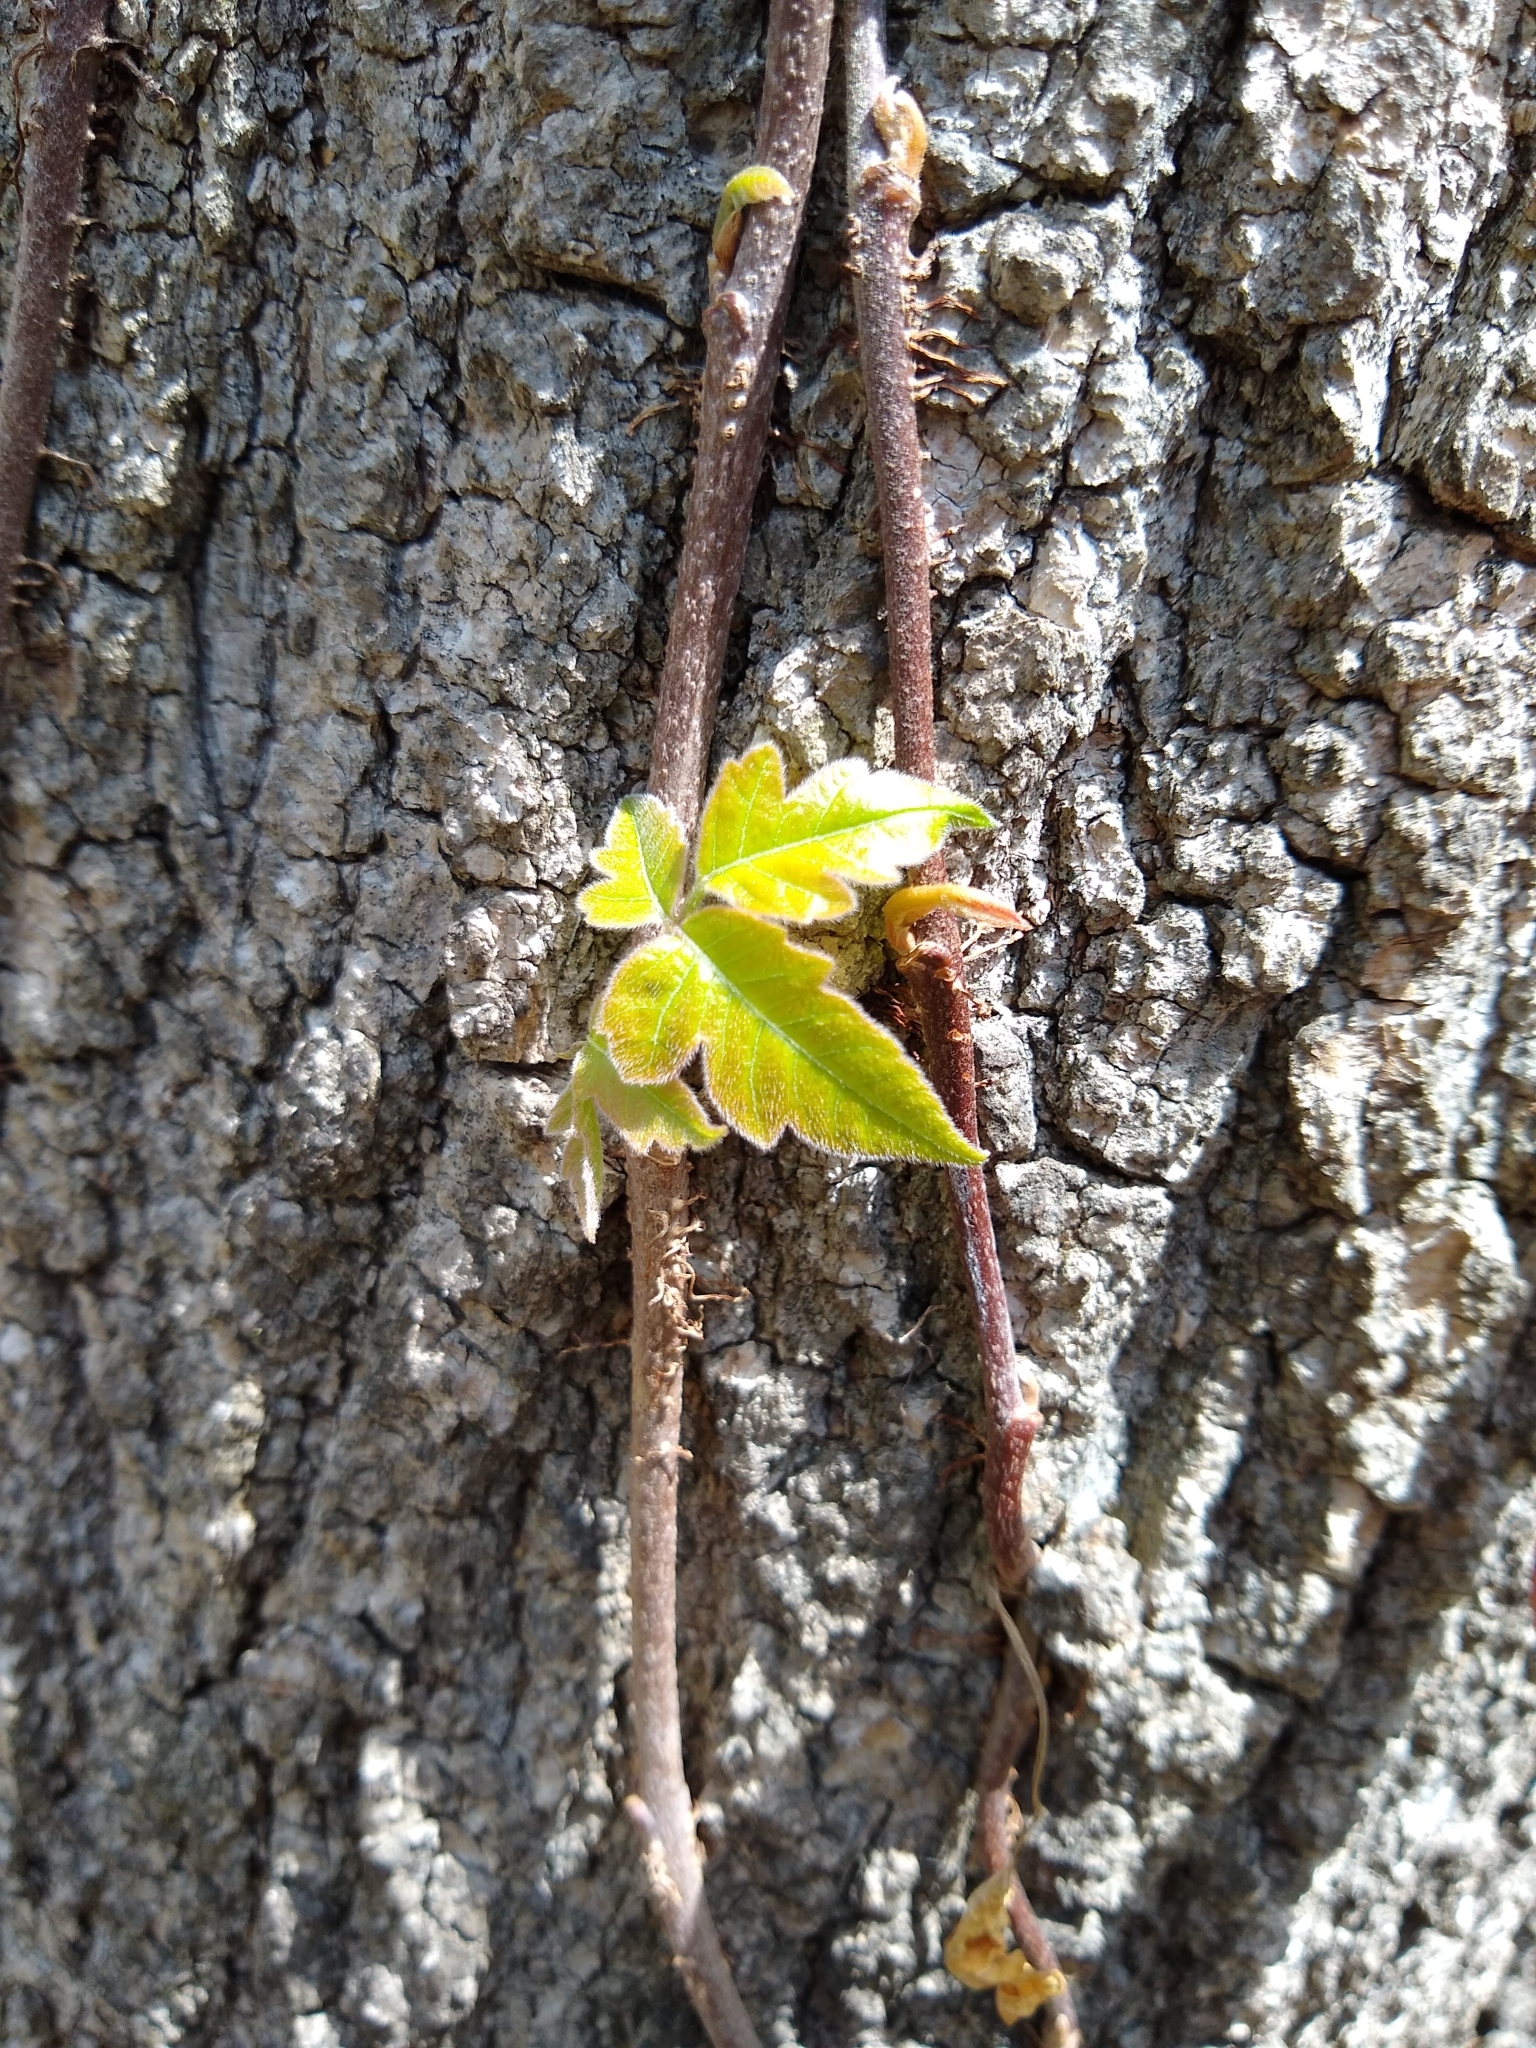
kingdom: Plantae
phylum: Tracheophyta
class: Magnoliopsida
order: Sapindales
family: Anacardiaceae
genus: Toxicodendron
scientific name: Toxicodendron radicans
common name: Poison ivy
